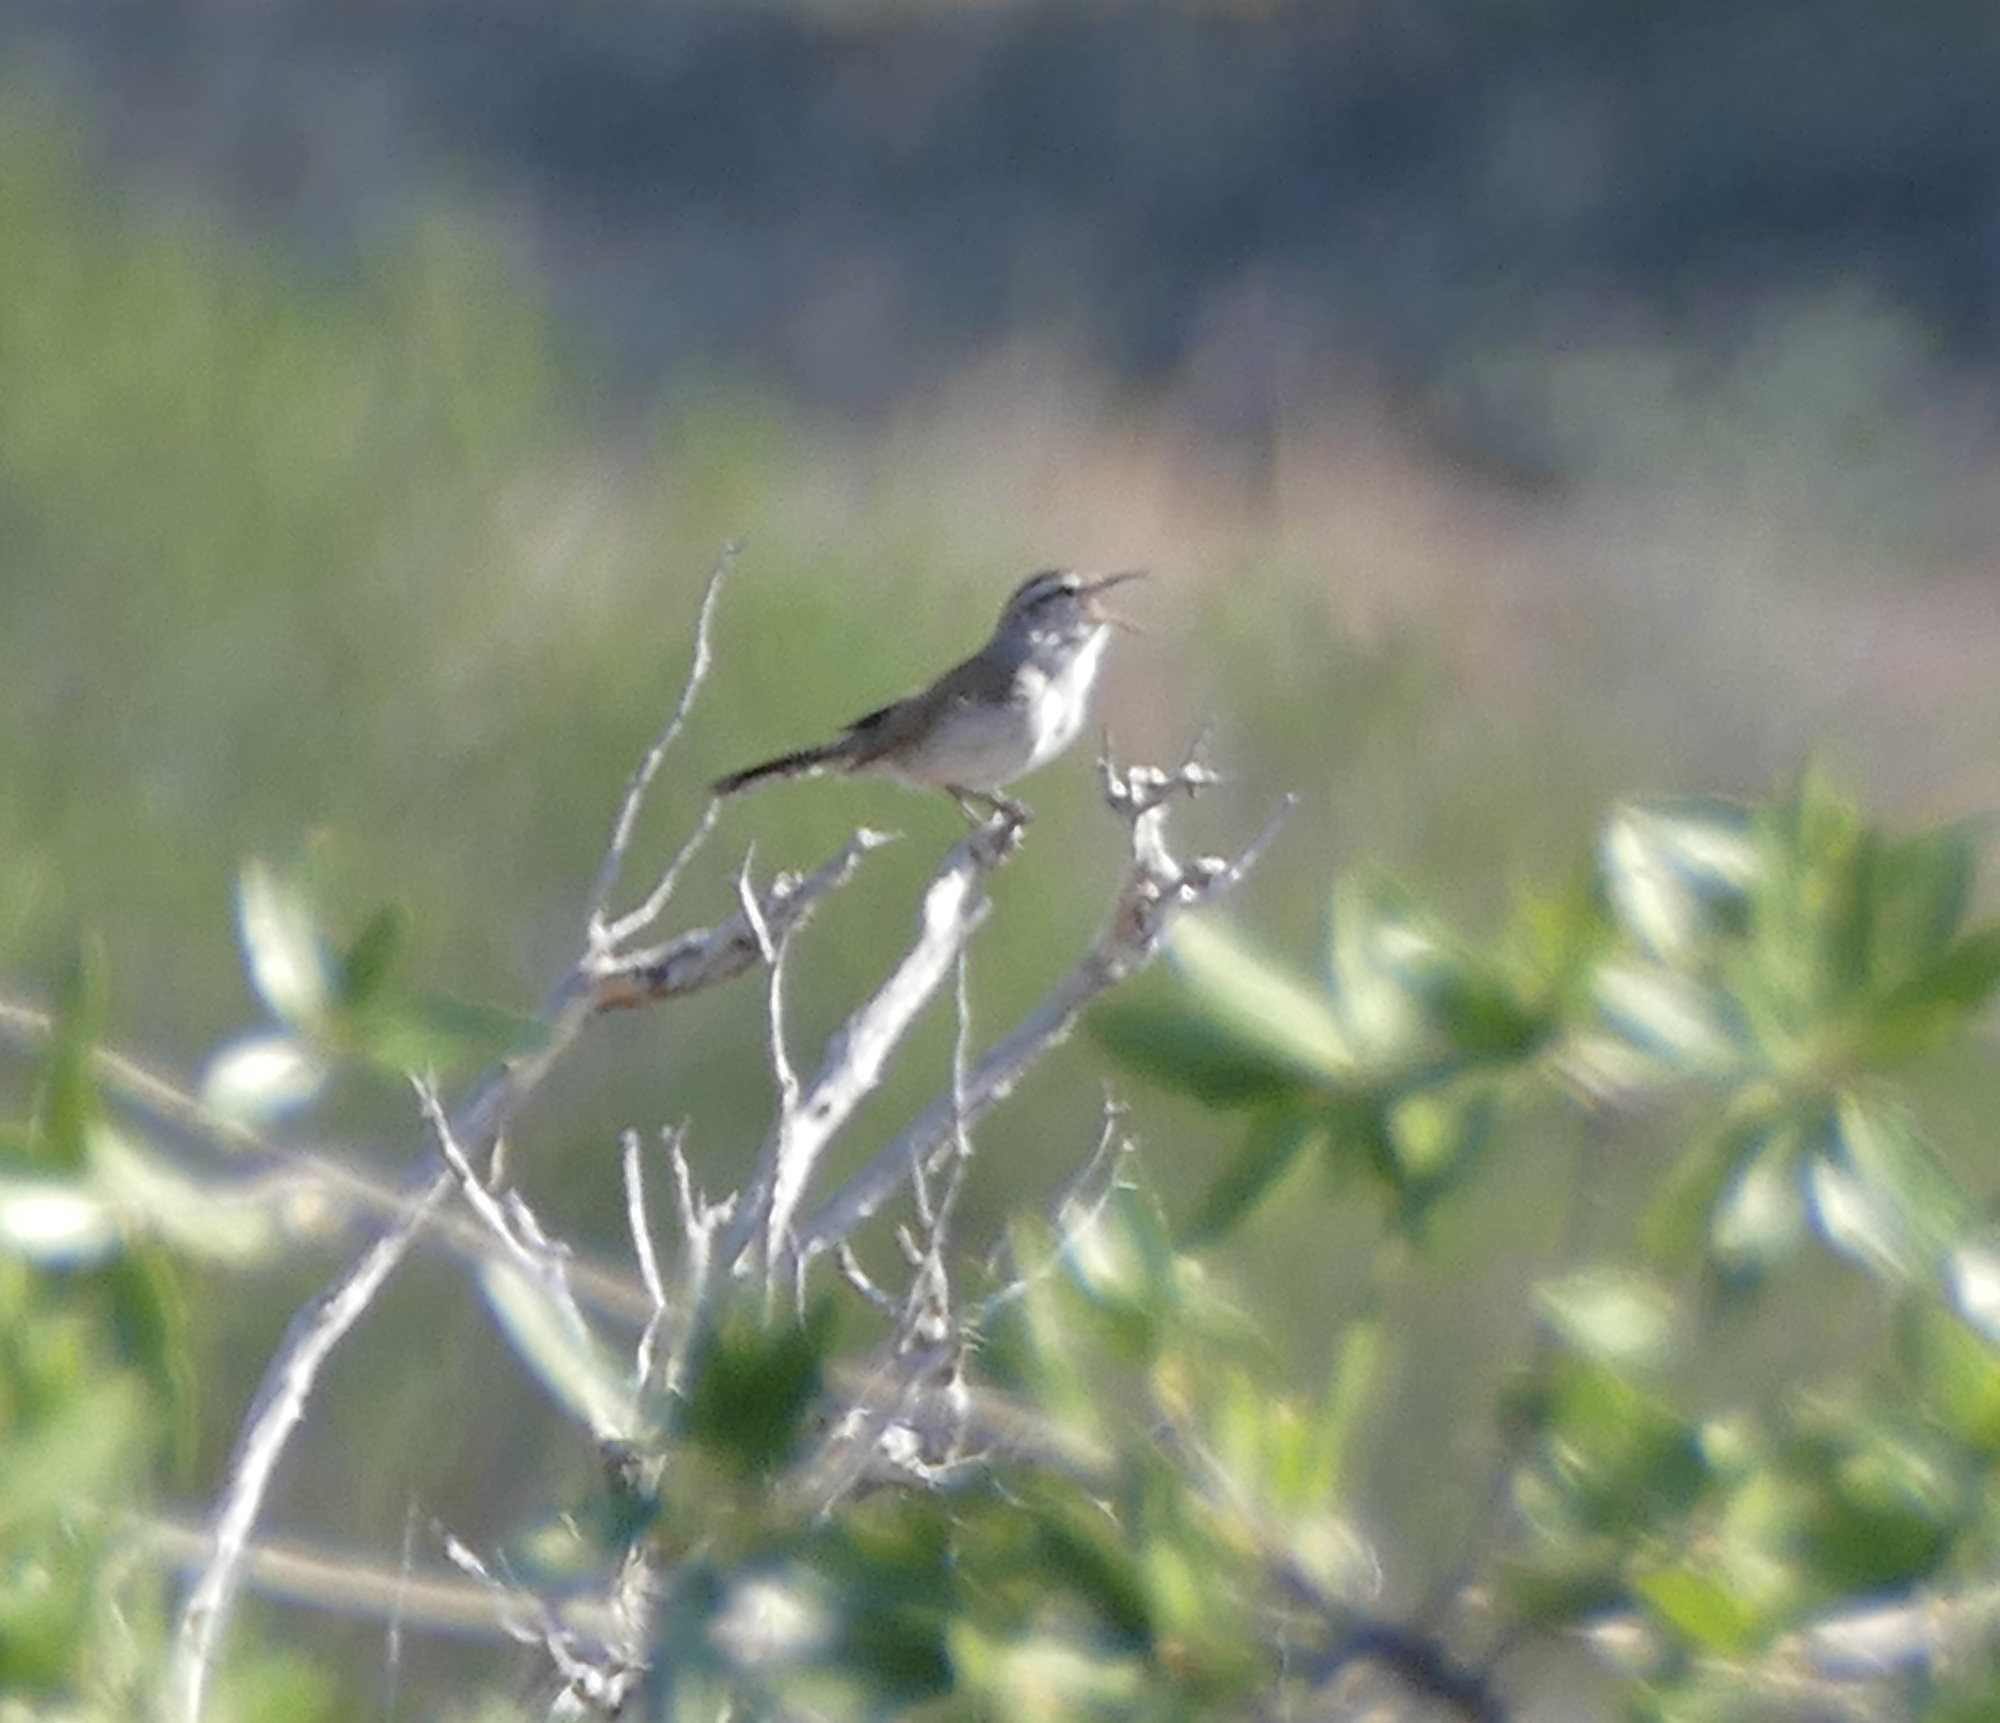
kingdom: Animalia
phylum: Chordata
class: Aves
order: Passeriformes
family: Troglodytidae
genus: Thryomanes
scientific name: Thryomanes bewickii
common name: Bewick's wren
